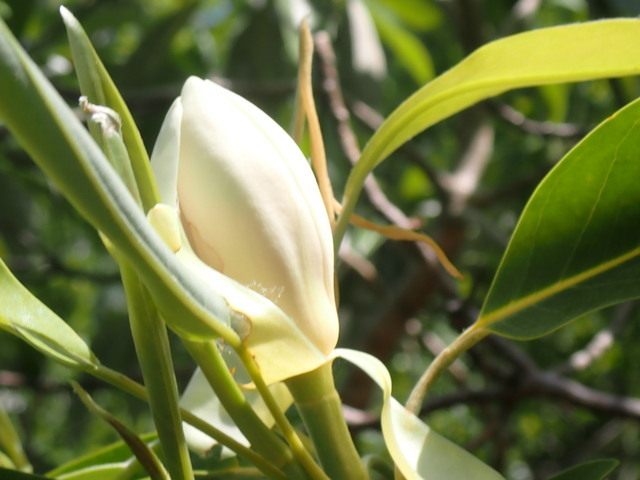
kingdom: Plantae
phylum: Tracheophyta
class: Magnoliopsida
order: Magnoliales
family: Magnoliaceae
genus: Magnolia
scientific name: Magnolia virginiana
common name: Swamp bay
